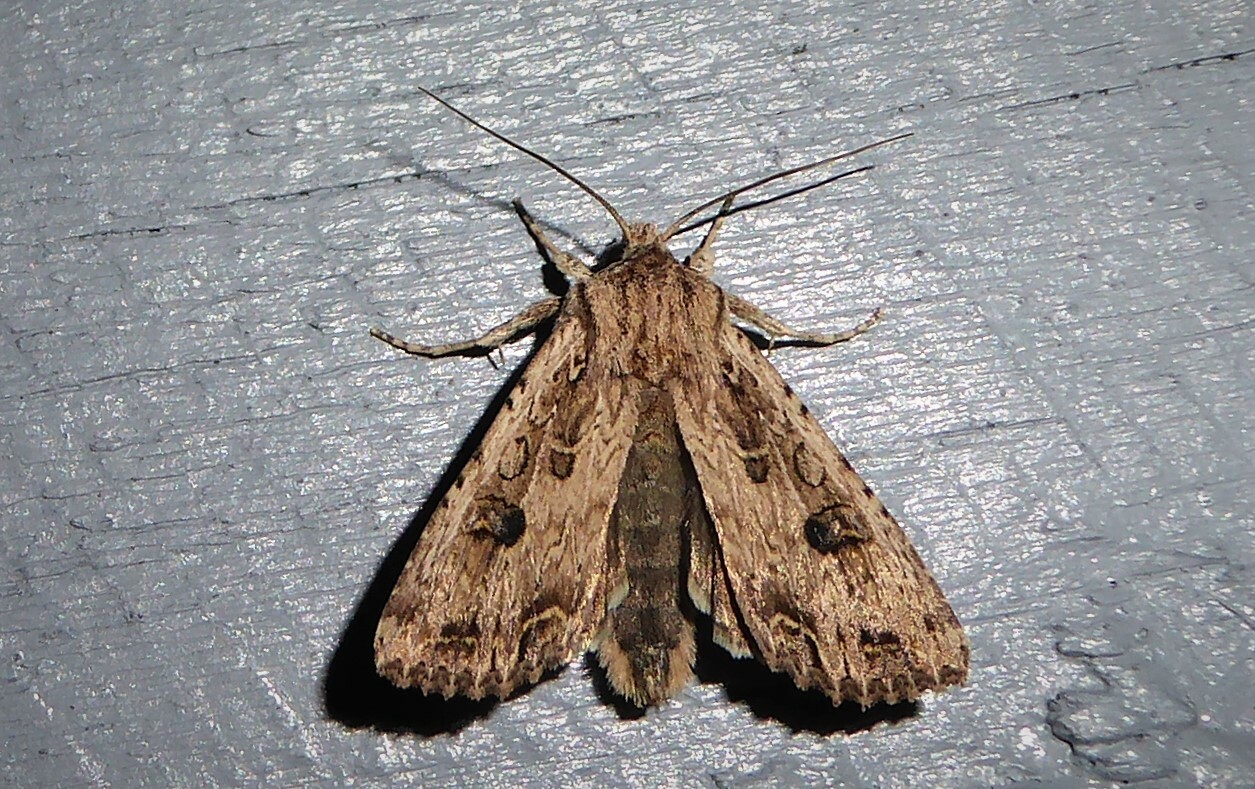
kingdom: Animalia
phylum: Arthropoda
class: Insecta
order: Lepidoptera
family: Noctuidae
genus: Ichneutica
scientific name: Ichneutica lignana
